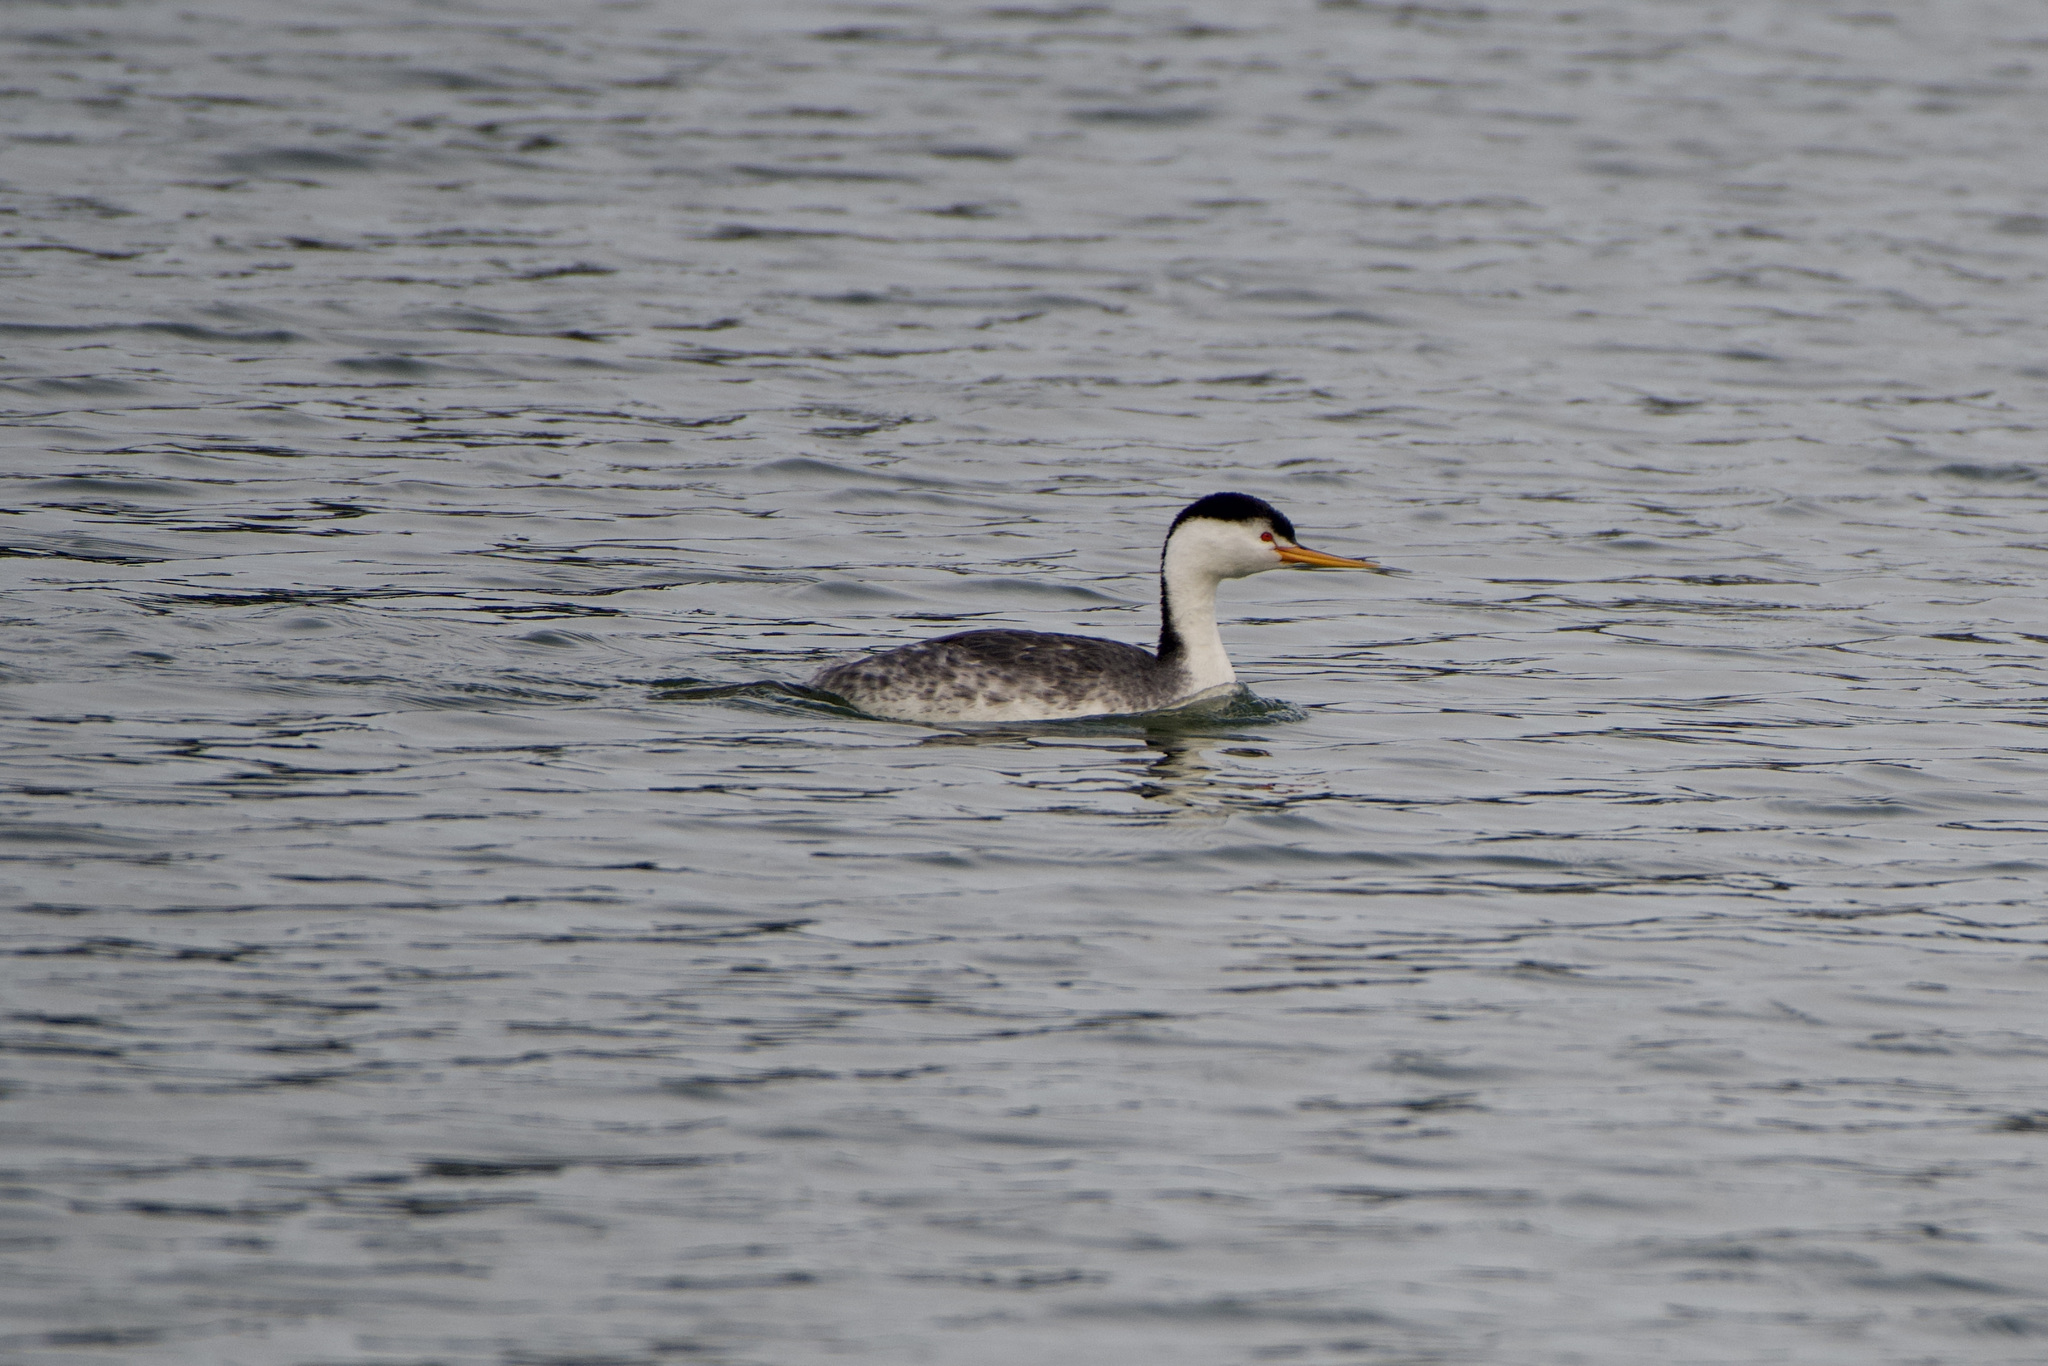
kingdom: Animalia
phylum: Chordata
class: Aves
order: Podicipediformes
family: Podicipedidae
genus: Aechmophorus
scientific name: Aechmophorus clarkii
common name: Clark's grebe
